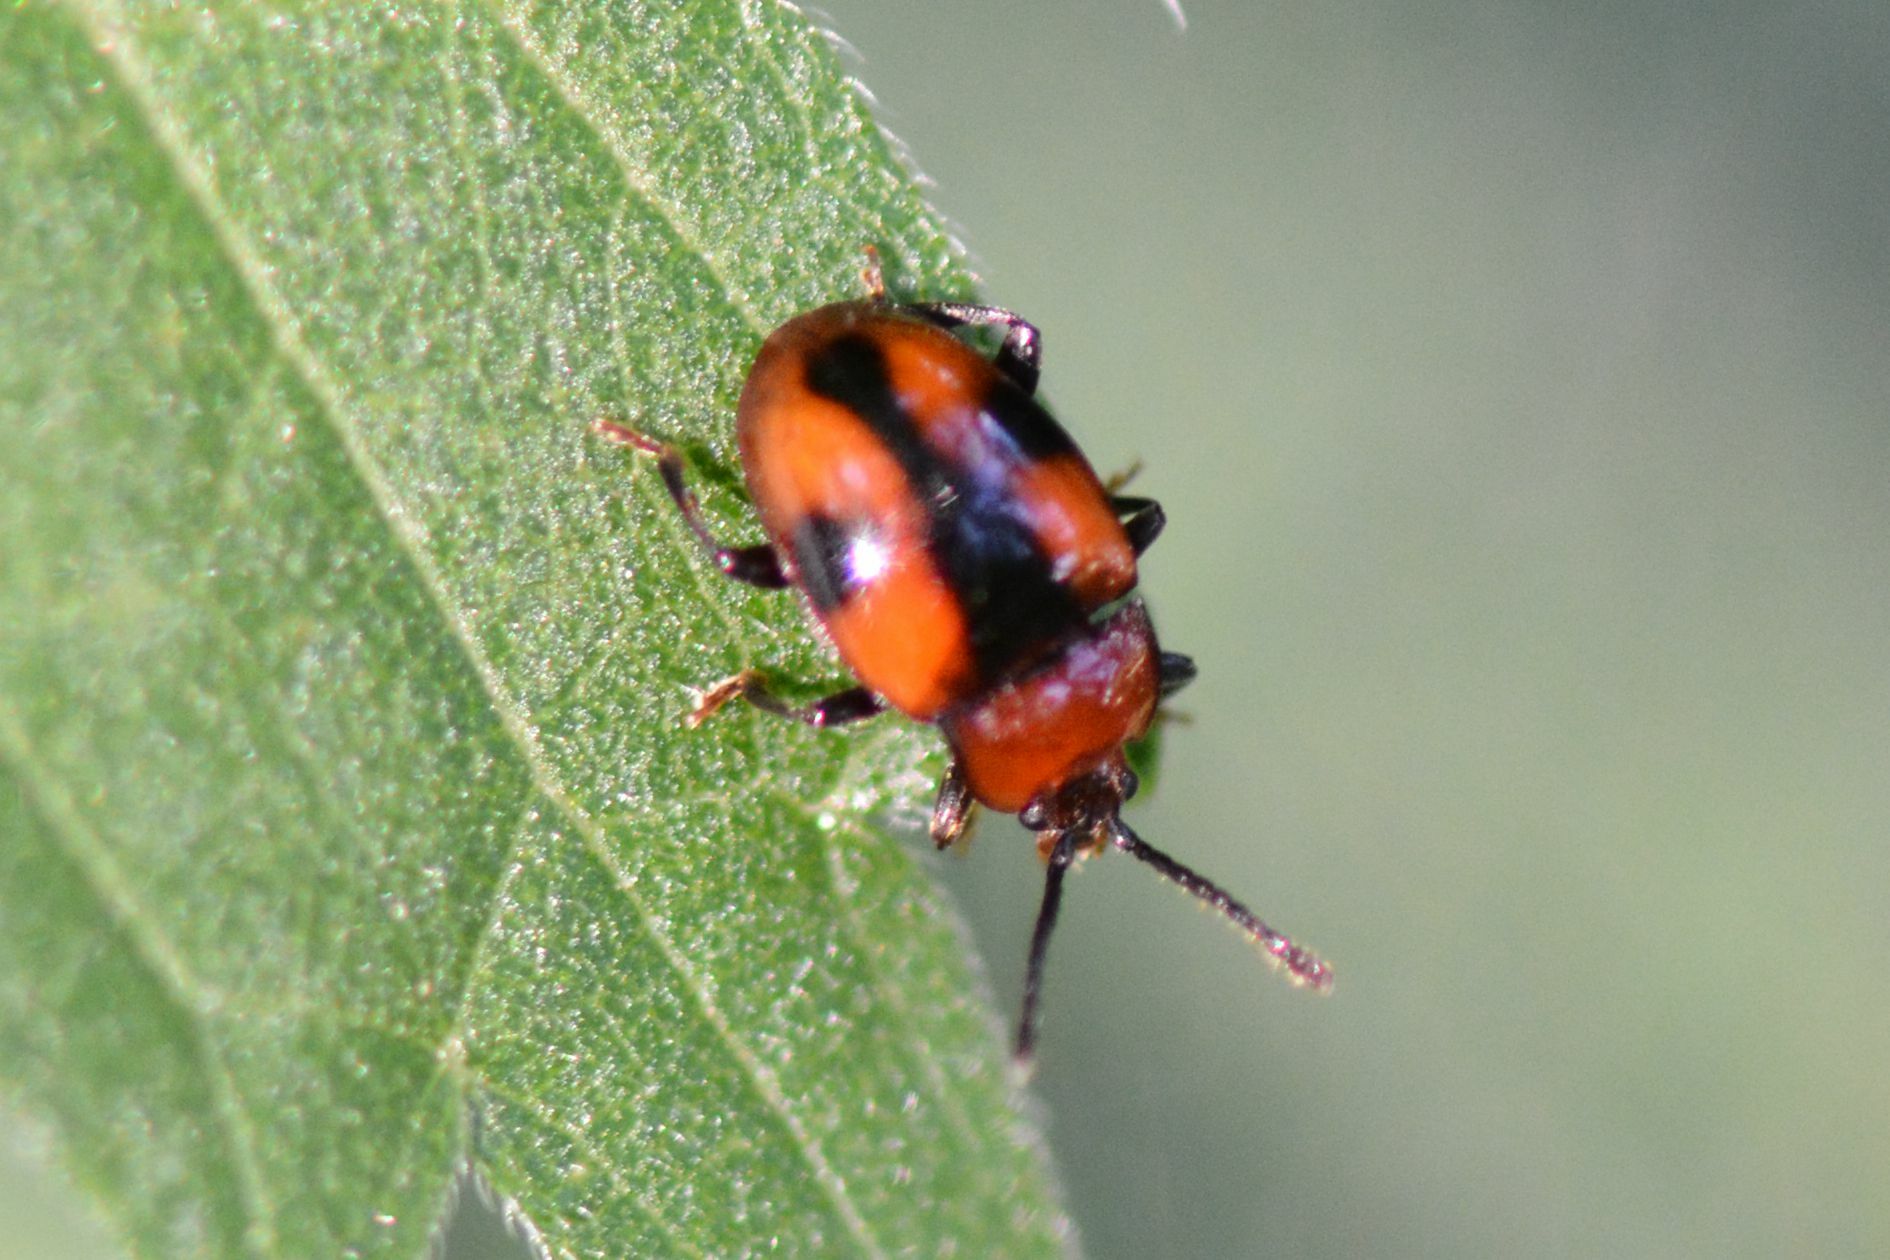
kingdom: Animalia
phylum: Arthropoda
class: Insecta
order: Coleoptera
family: Endomychidae
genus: Mycetina
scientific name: Mycetina cruciata
